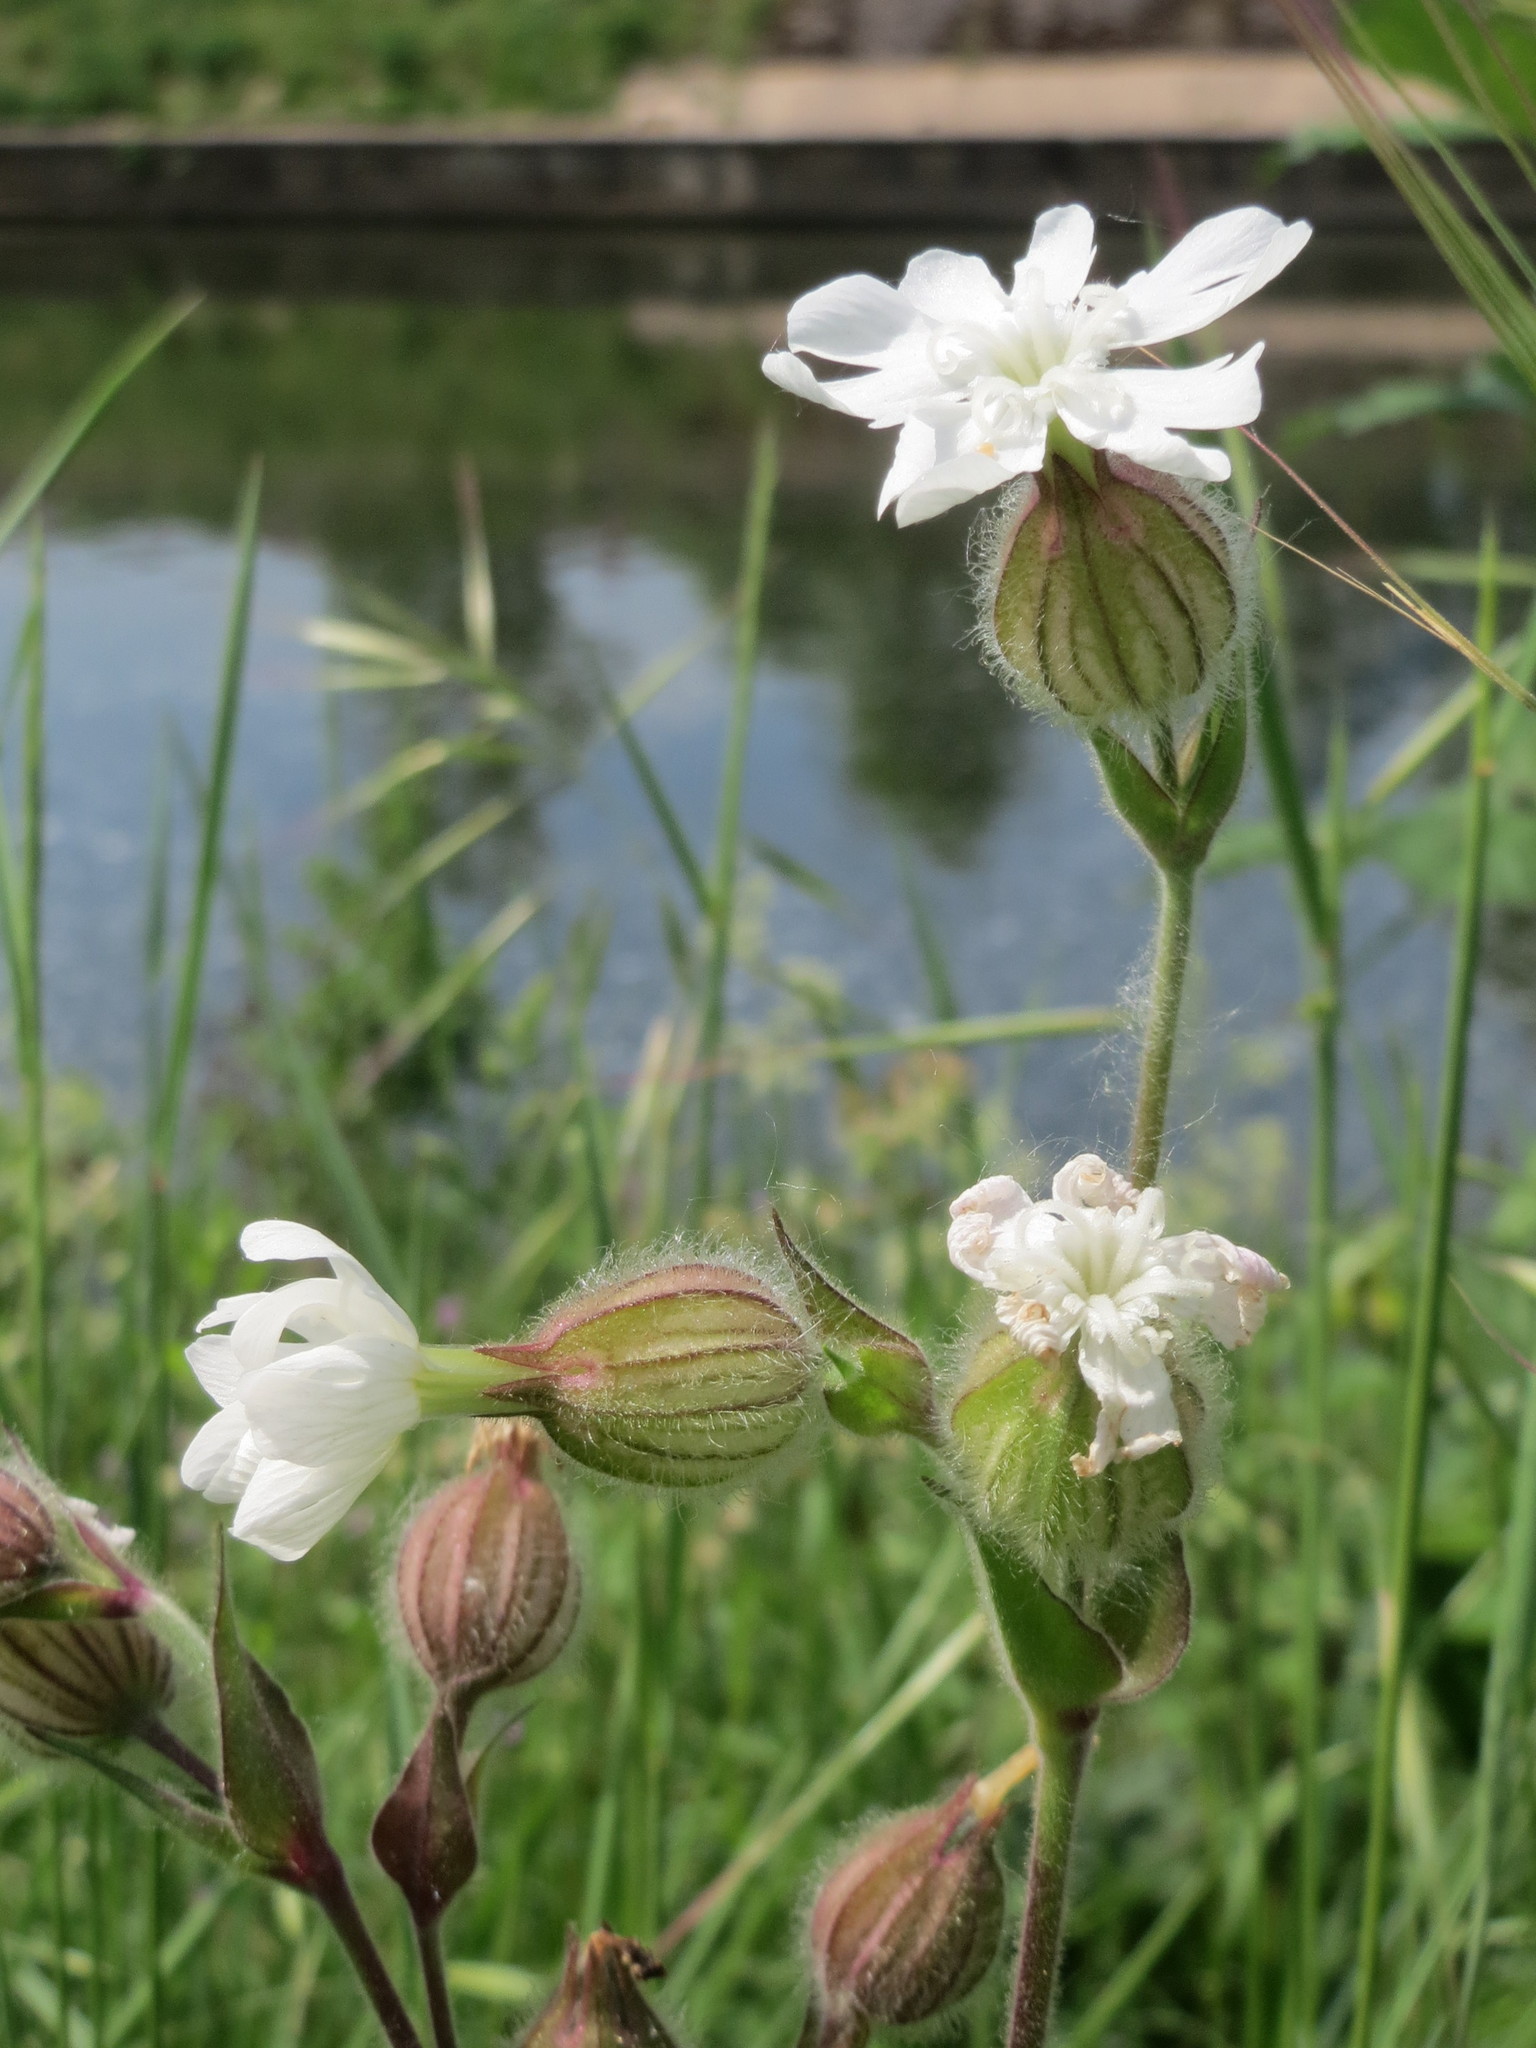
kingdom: Plantae
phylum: Tracheophyta
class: Magnoliopsida
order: Caryophyllales
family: Caryophyllaceae
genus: Silene
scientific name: Silene latifolia
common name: White campion
